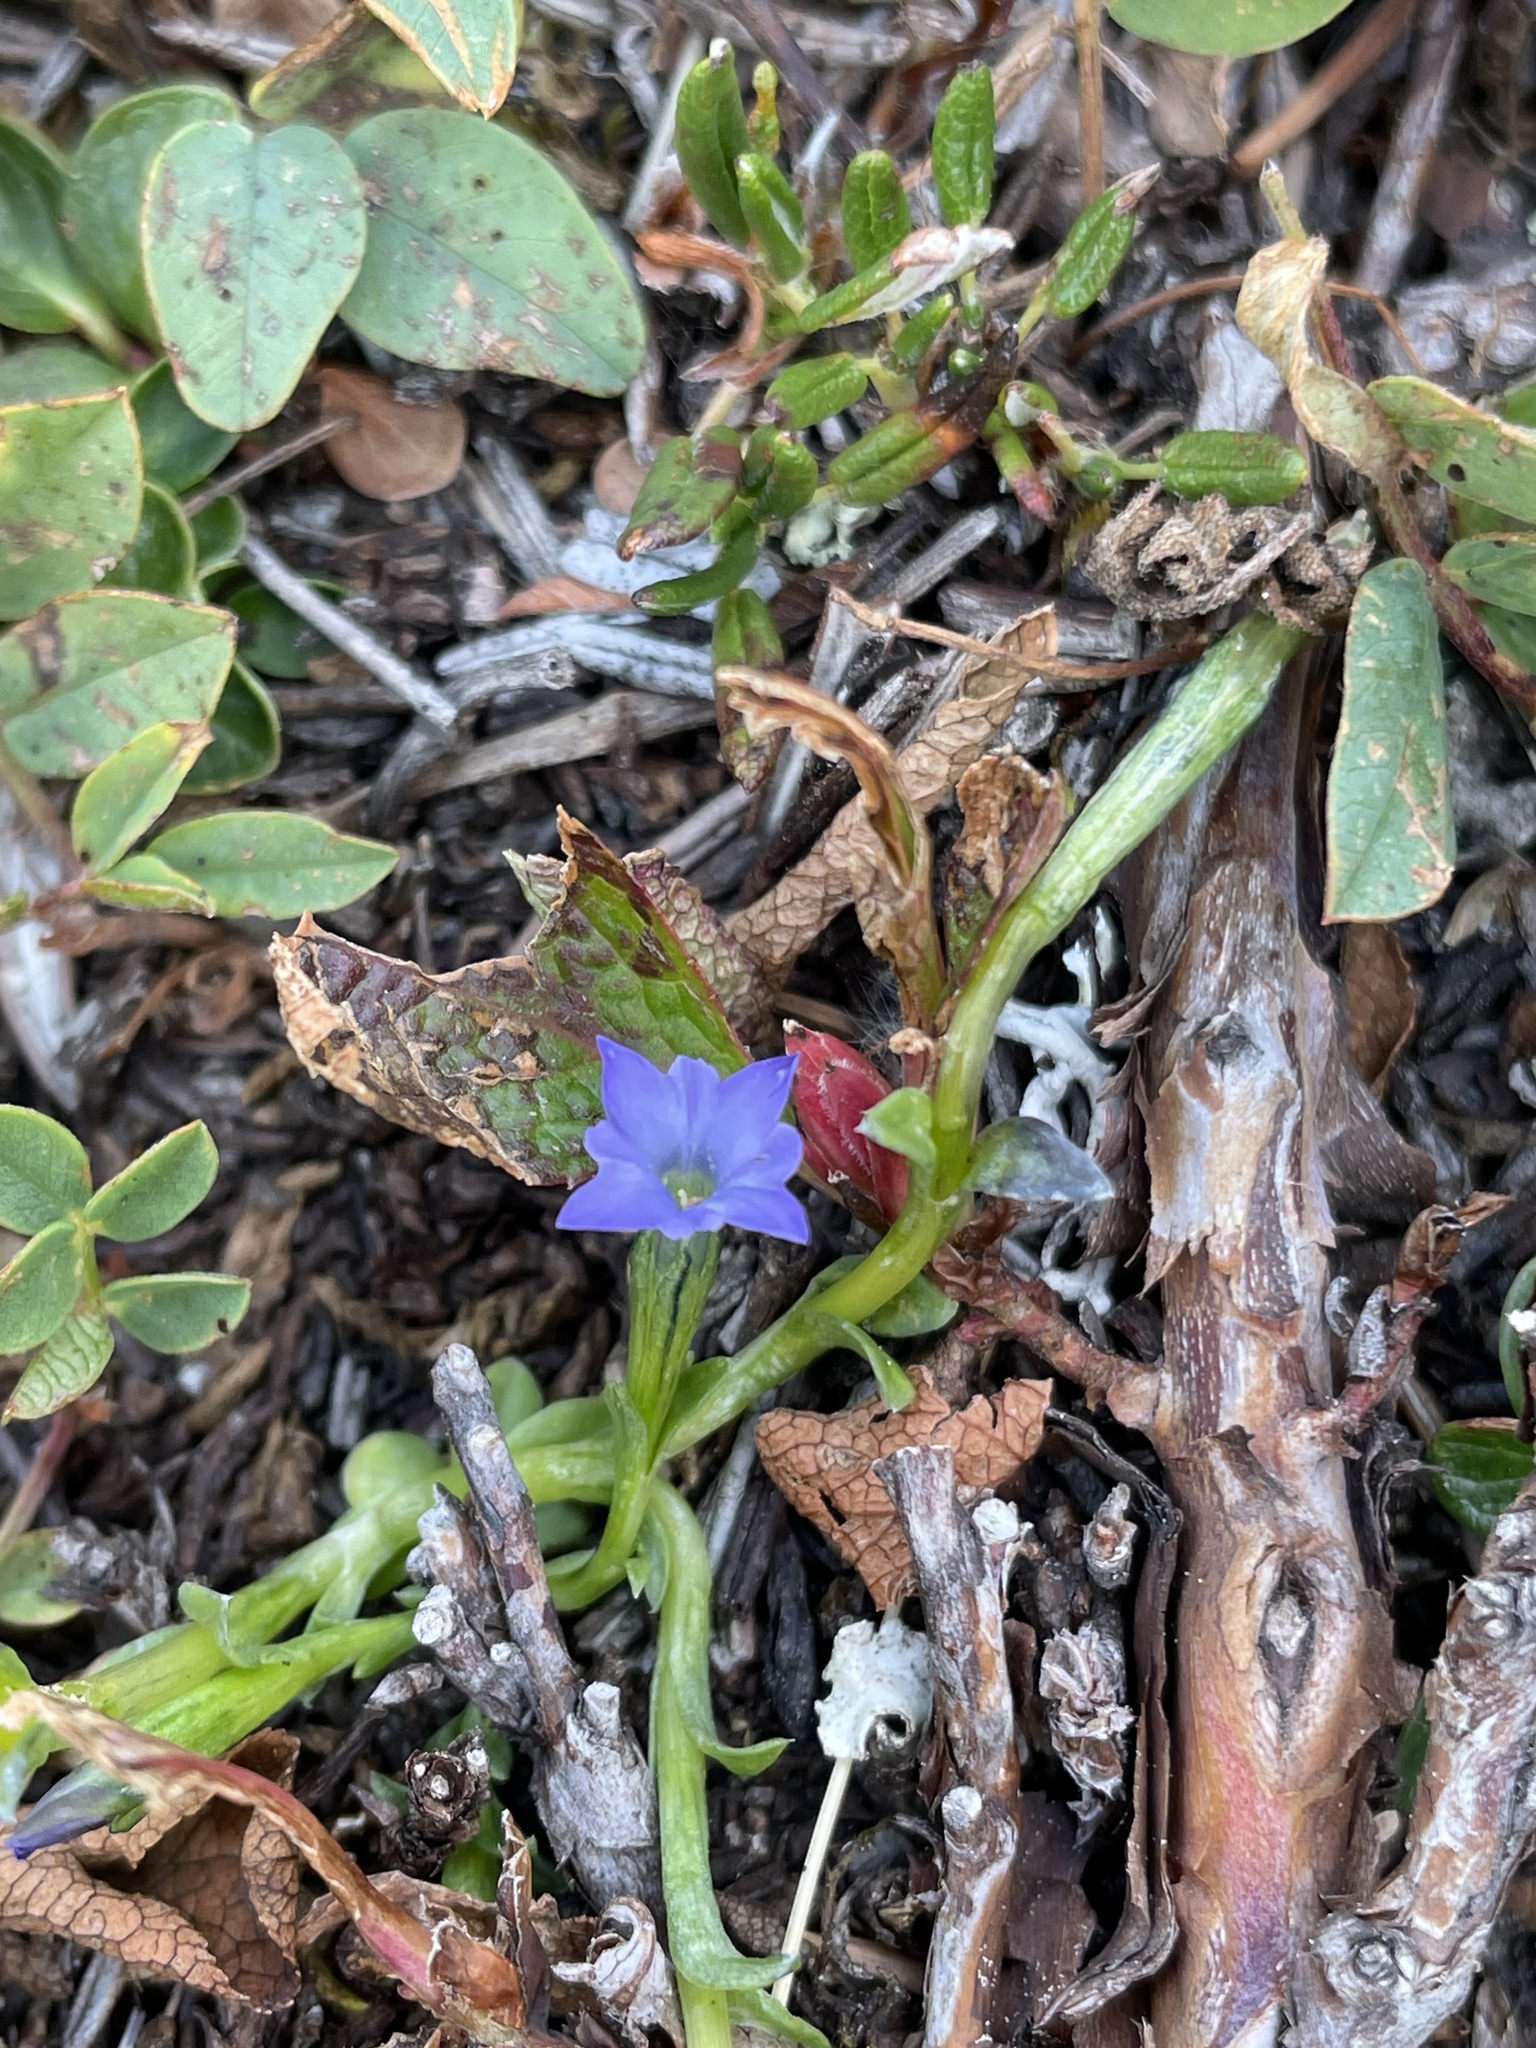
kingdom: Plantae
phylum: Tracheophyta
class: Magnoliopsida
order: Gentianales
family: Gentianaceae
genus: Gentiana
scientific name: Gentiana prostrata
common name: Moss gentian
